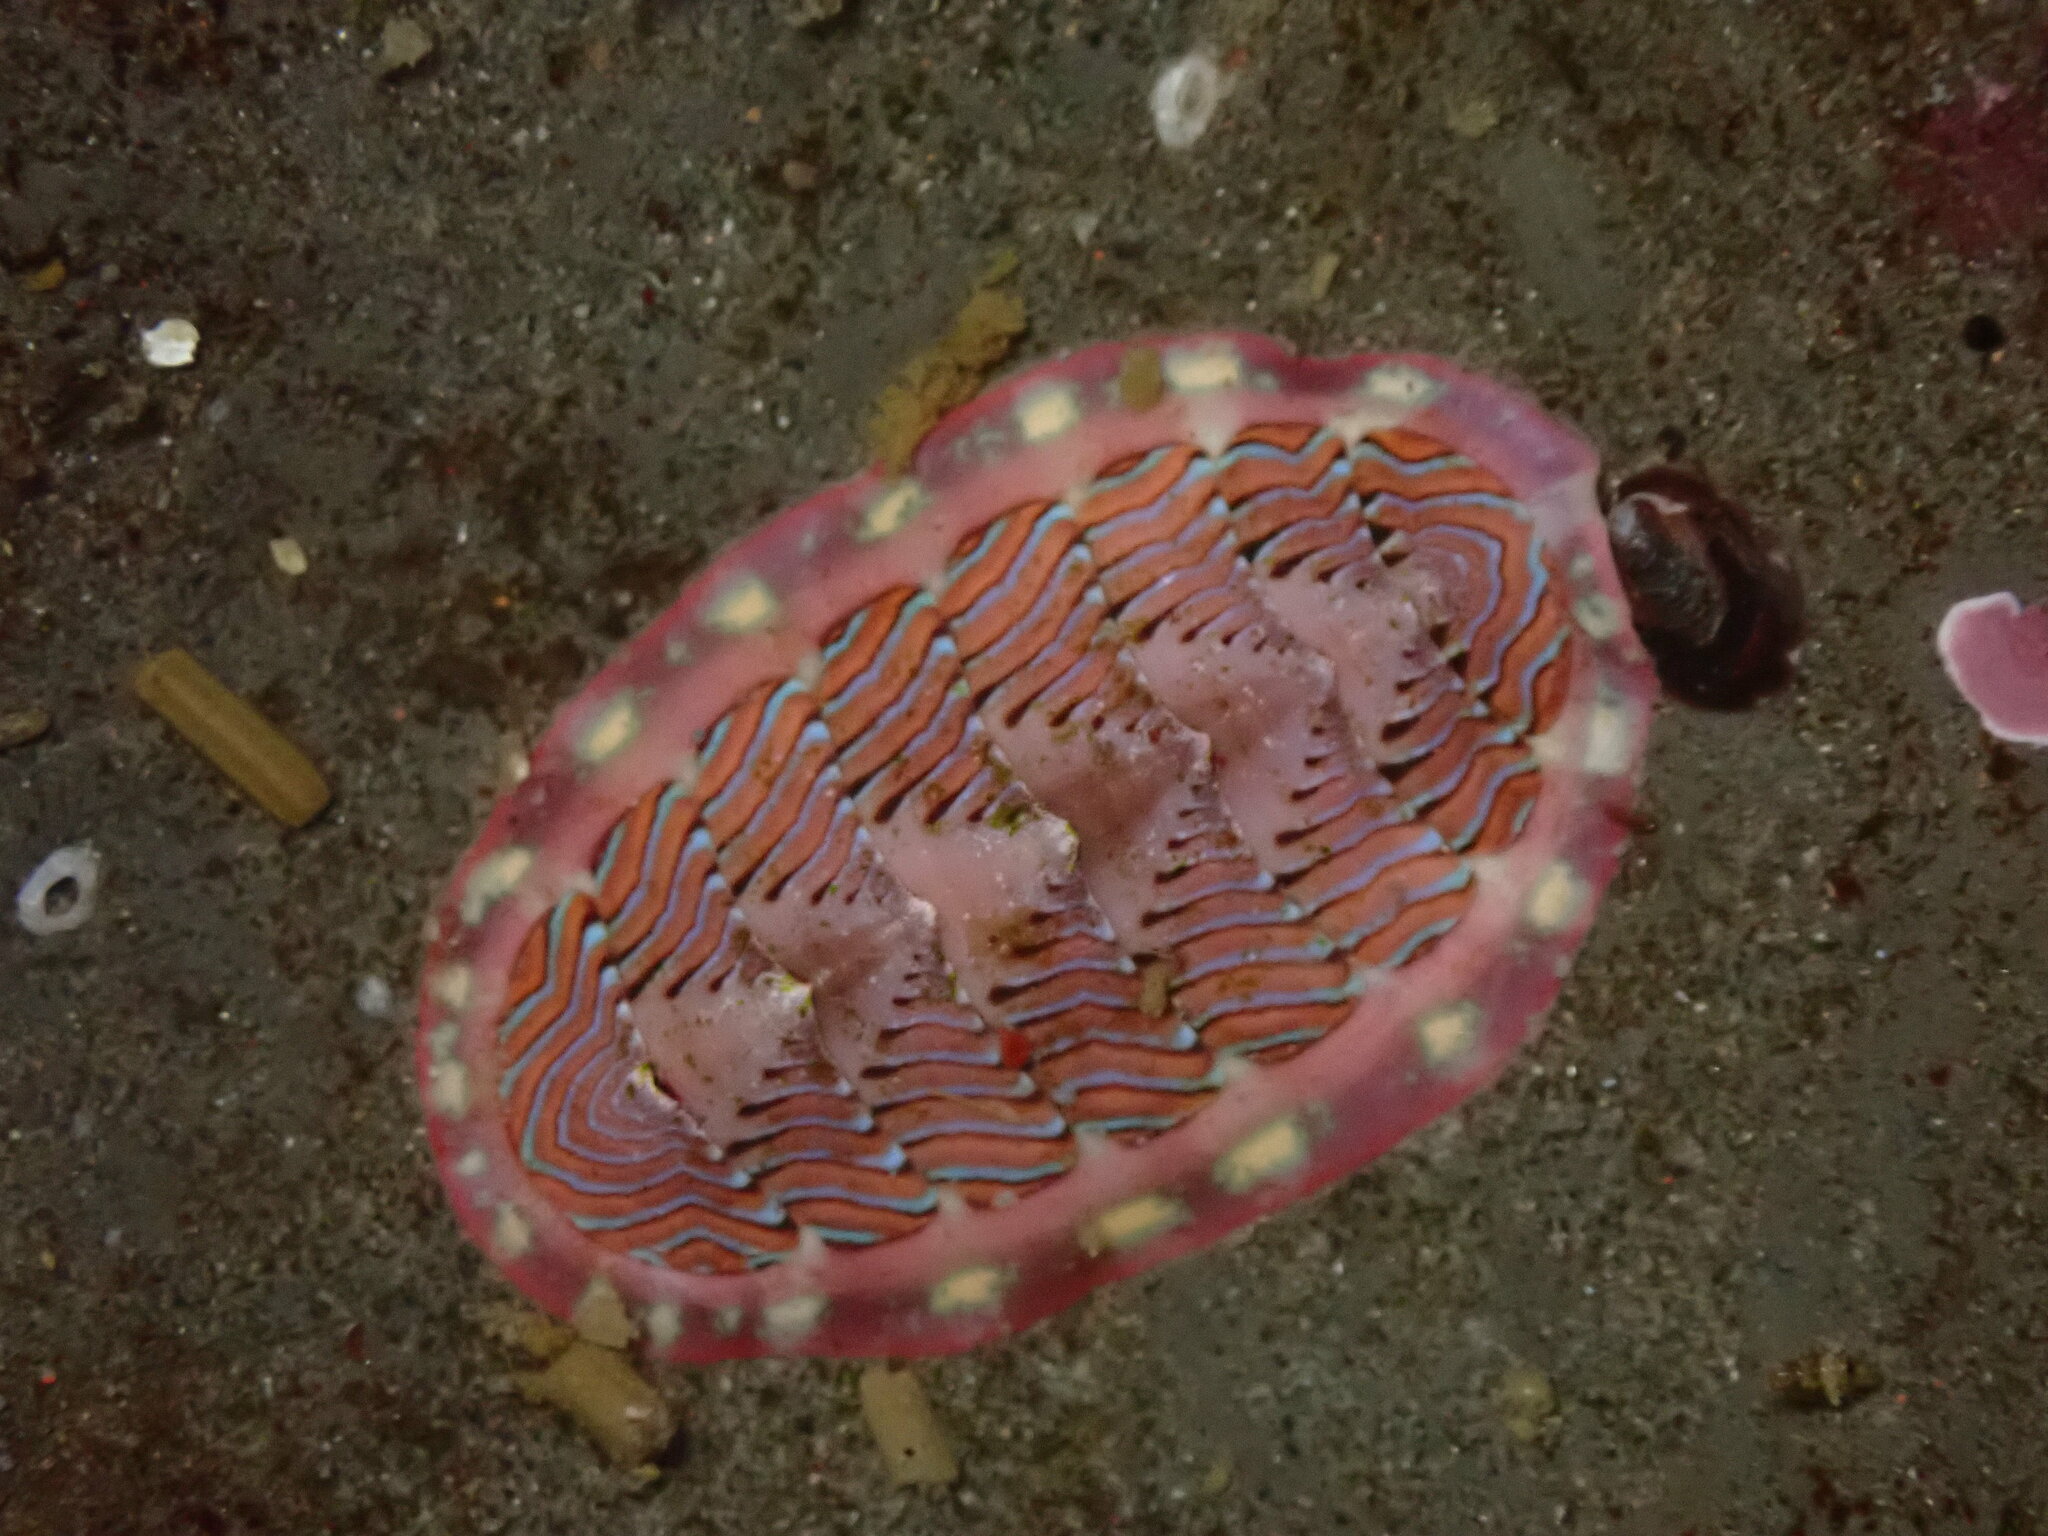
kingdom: Animalia
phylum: Mollusca
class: Polyplacophora
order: Chitonida
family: Tonicellidae
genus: Tonicella
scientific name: Tonicella lineata
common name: Lined chiton
